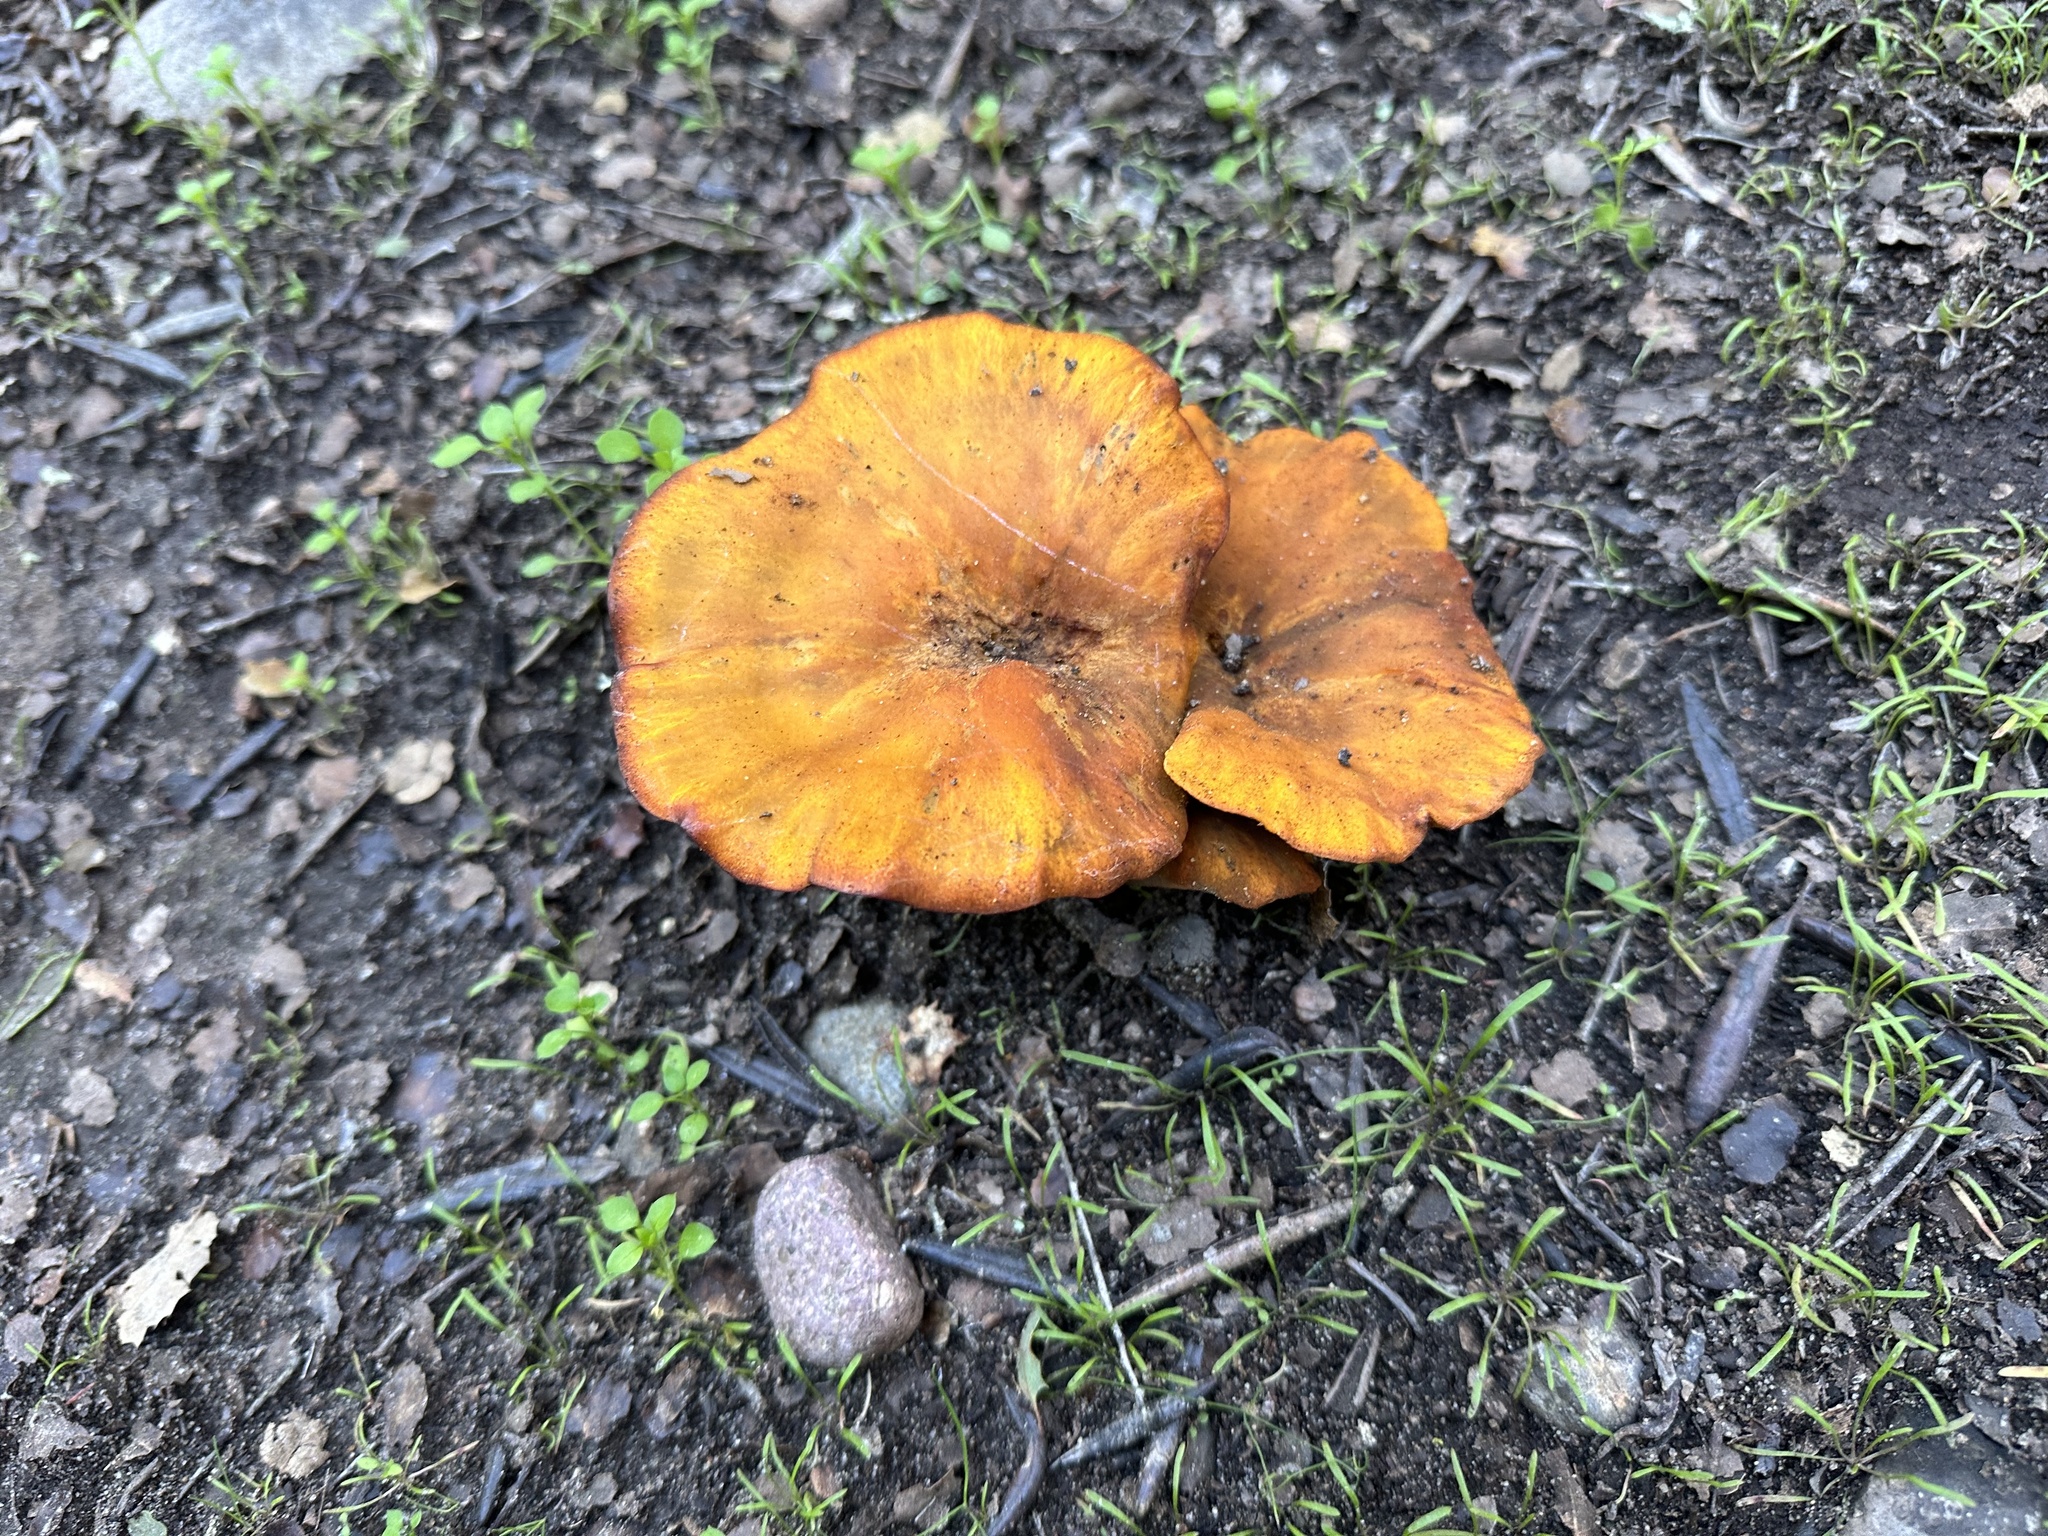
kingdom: Fungi
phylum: Basidiomycota
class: Agaricomycetes
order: Agaricales
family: Omphalotaceae
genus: Omphalotus
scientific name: Omphalotus olivascens
